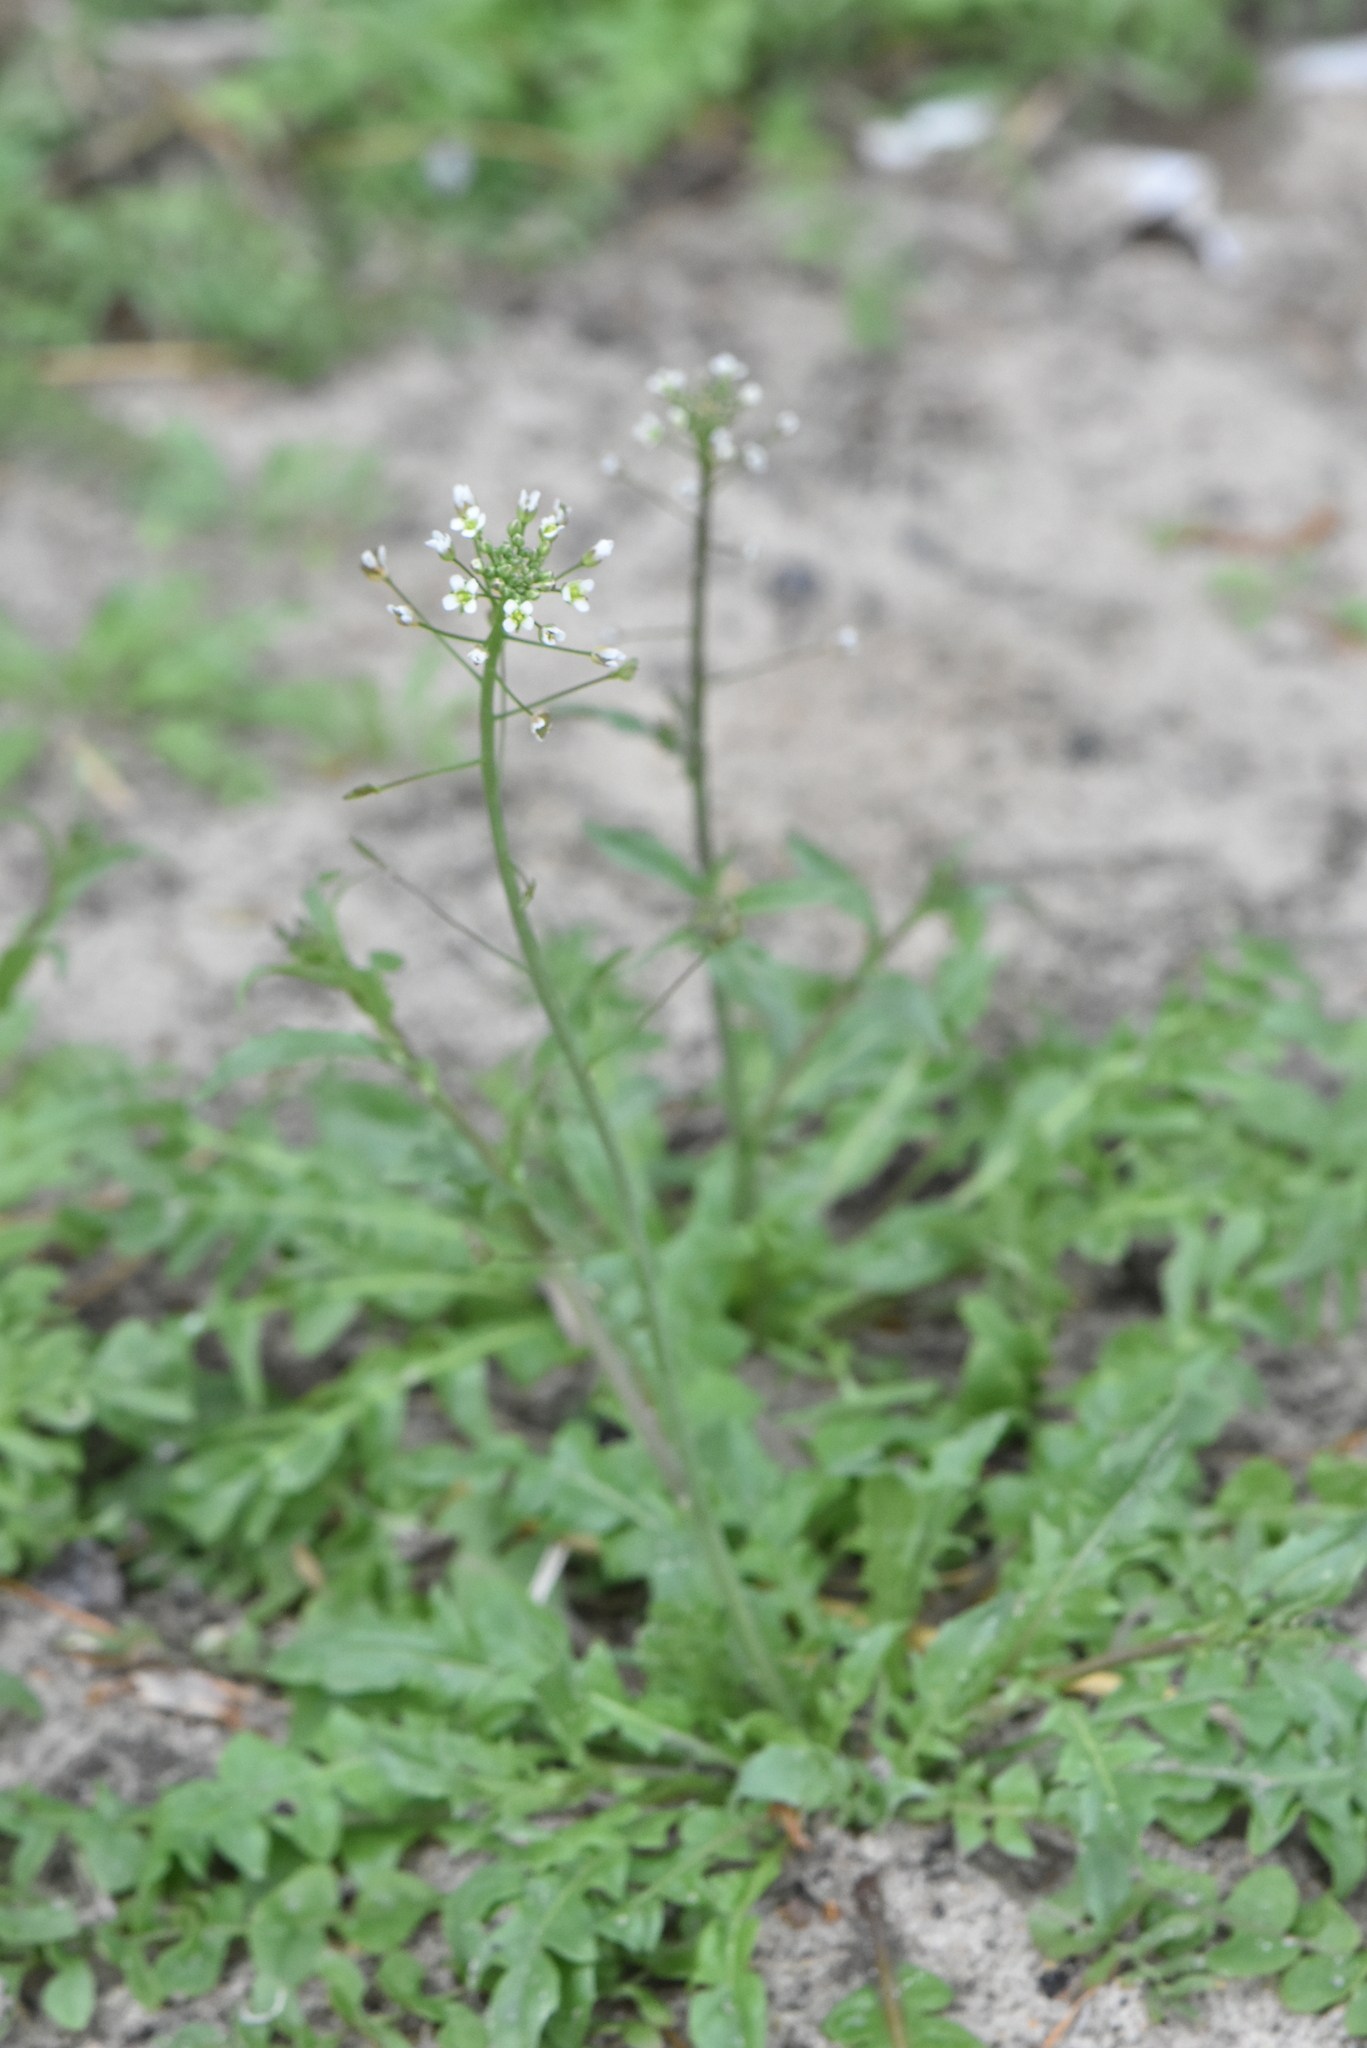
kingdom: Plantae
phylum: Tracheophyta
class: Magnoliopsida
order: Brassicales
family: Brassicaceae
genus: Capsella
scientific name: Capsella bursa-pastoris
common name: Shepherd's purse
